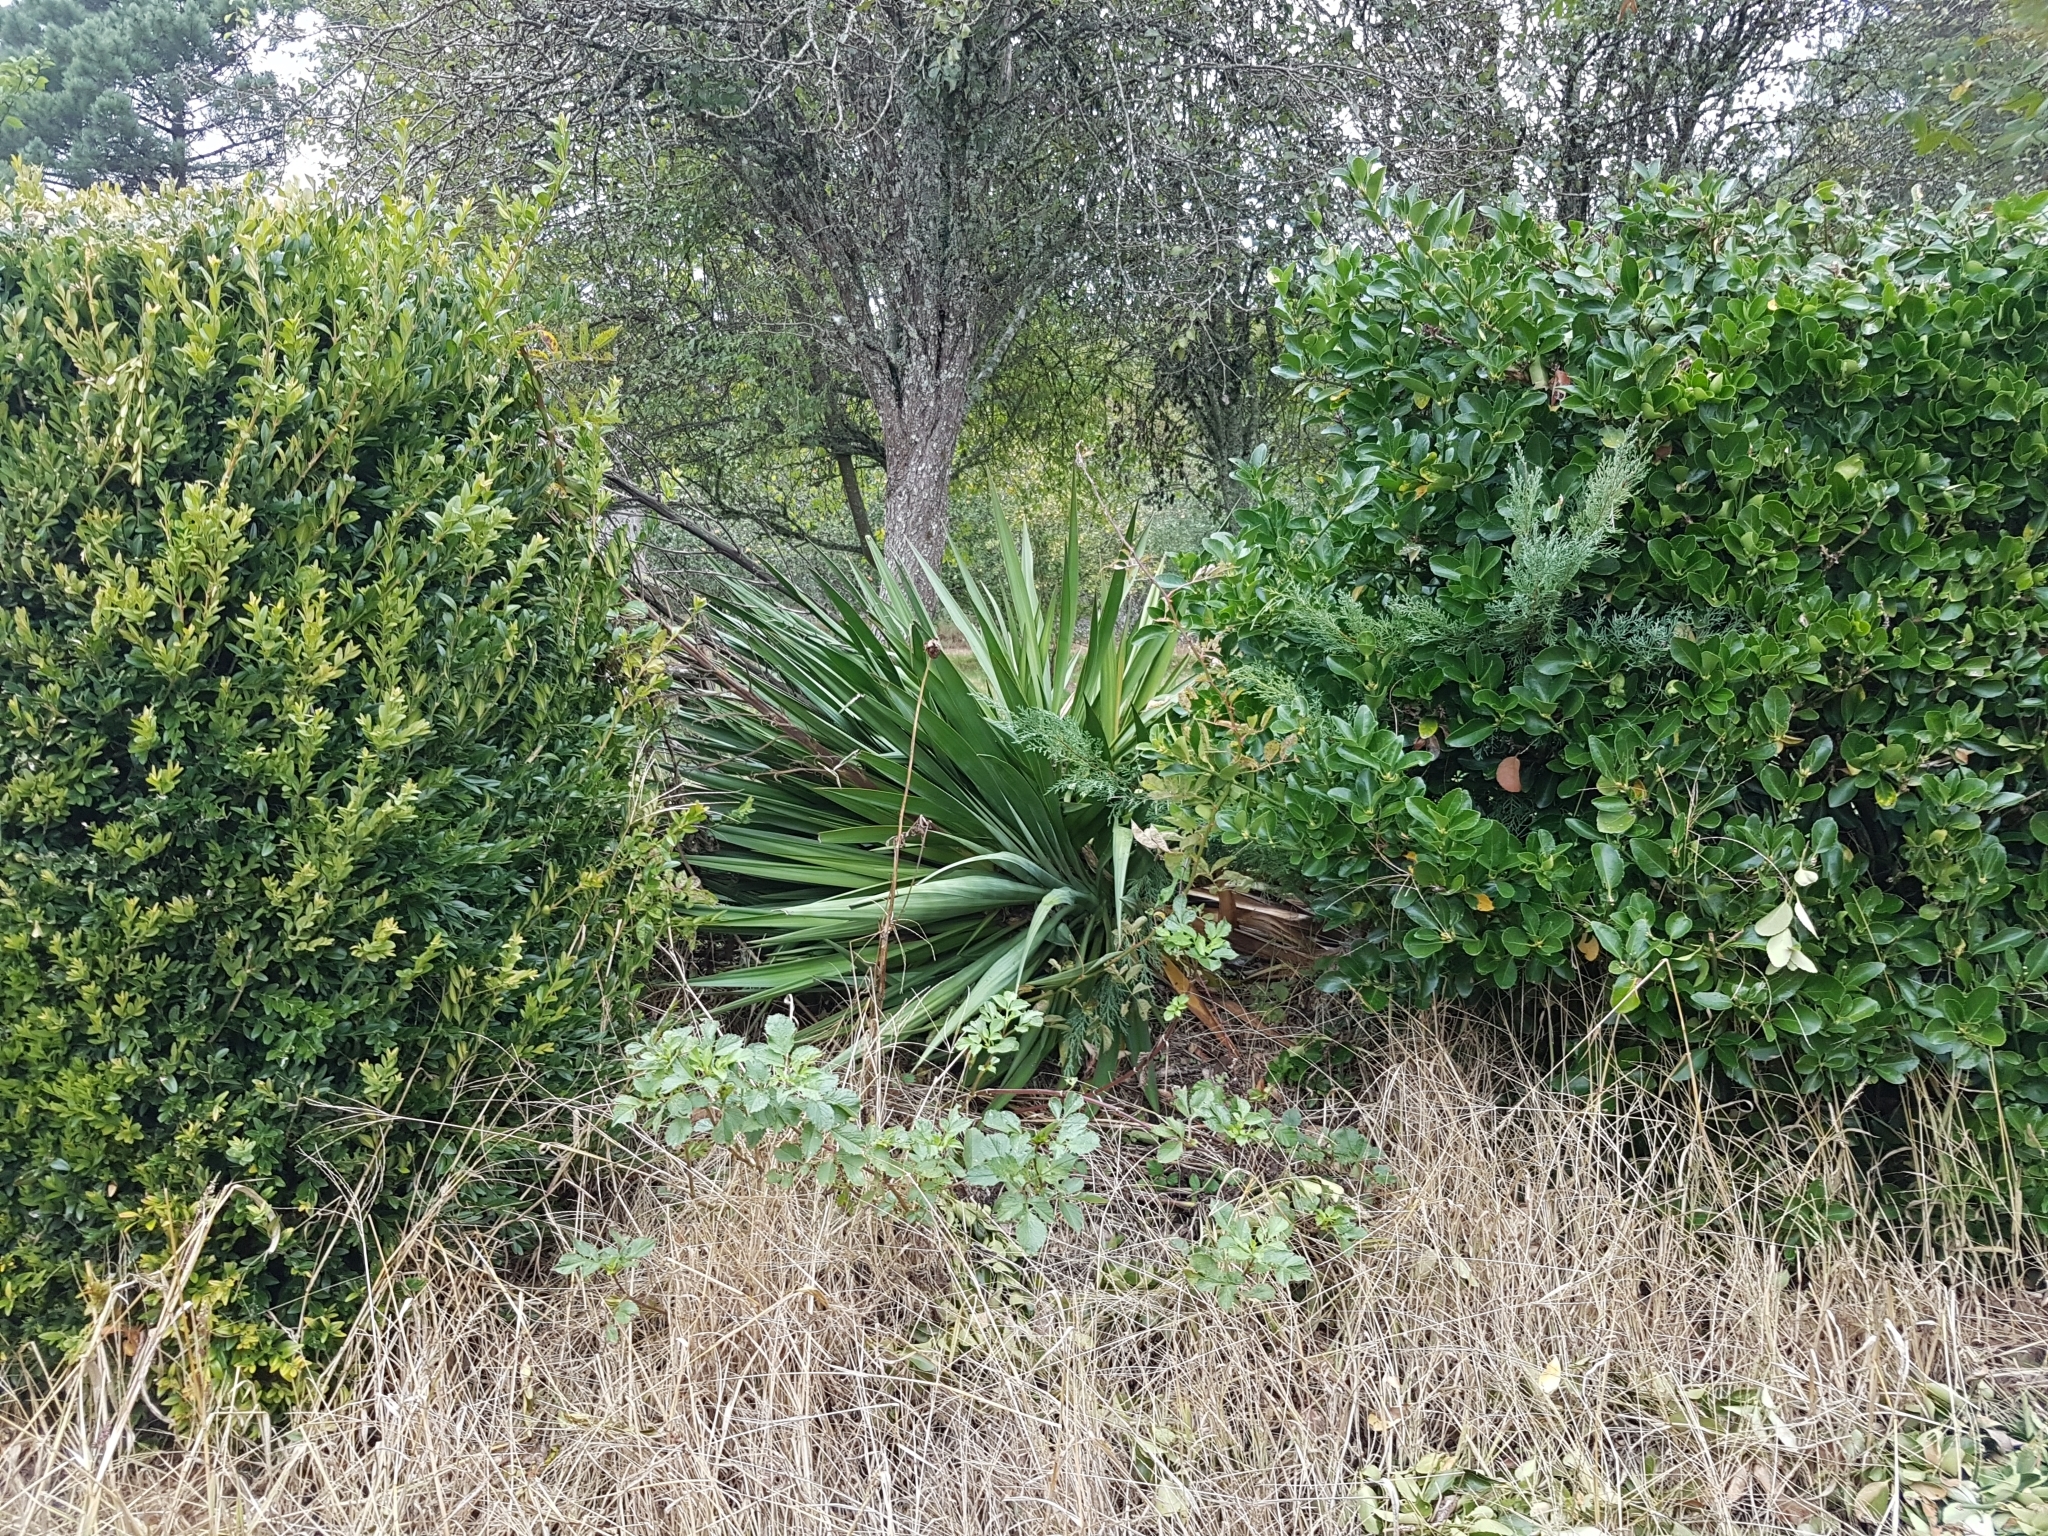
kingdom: Plantae
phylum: Tracheophyta
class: Liliopsida
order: Asparagales
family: Asparagaceae
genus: Yucca
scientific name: Yucca gloriosa
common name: Spanish-dagger
